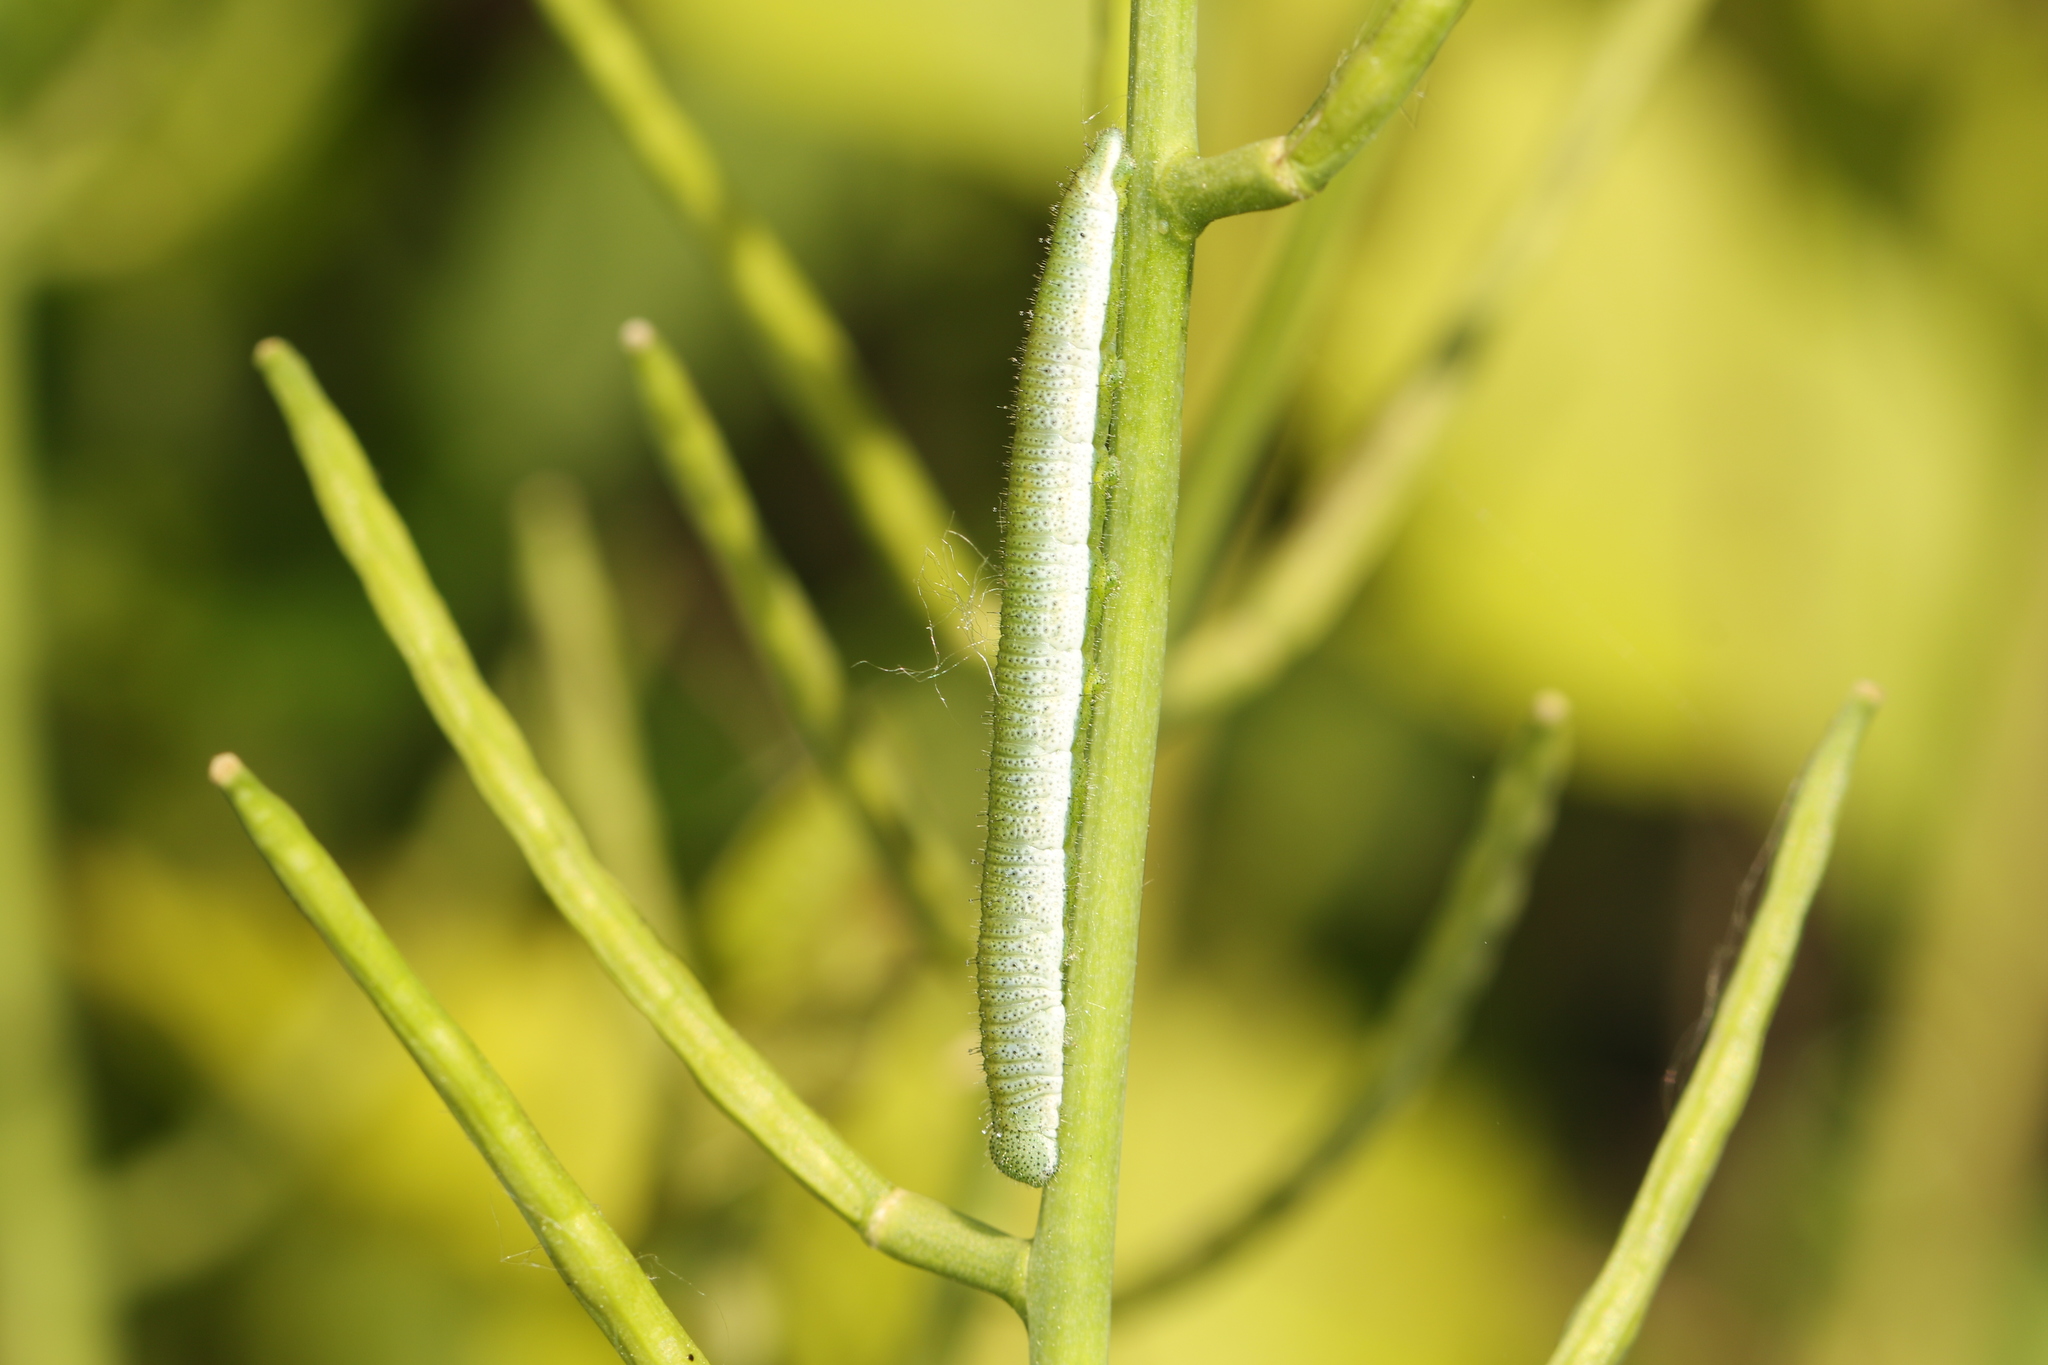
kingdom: Animalia
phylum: Arthropoda
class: Insecta
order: Lepidoptera
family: Pieridae
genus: Anthocharis
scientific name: Anthocharis cardamines
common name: Orange-tip
